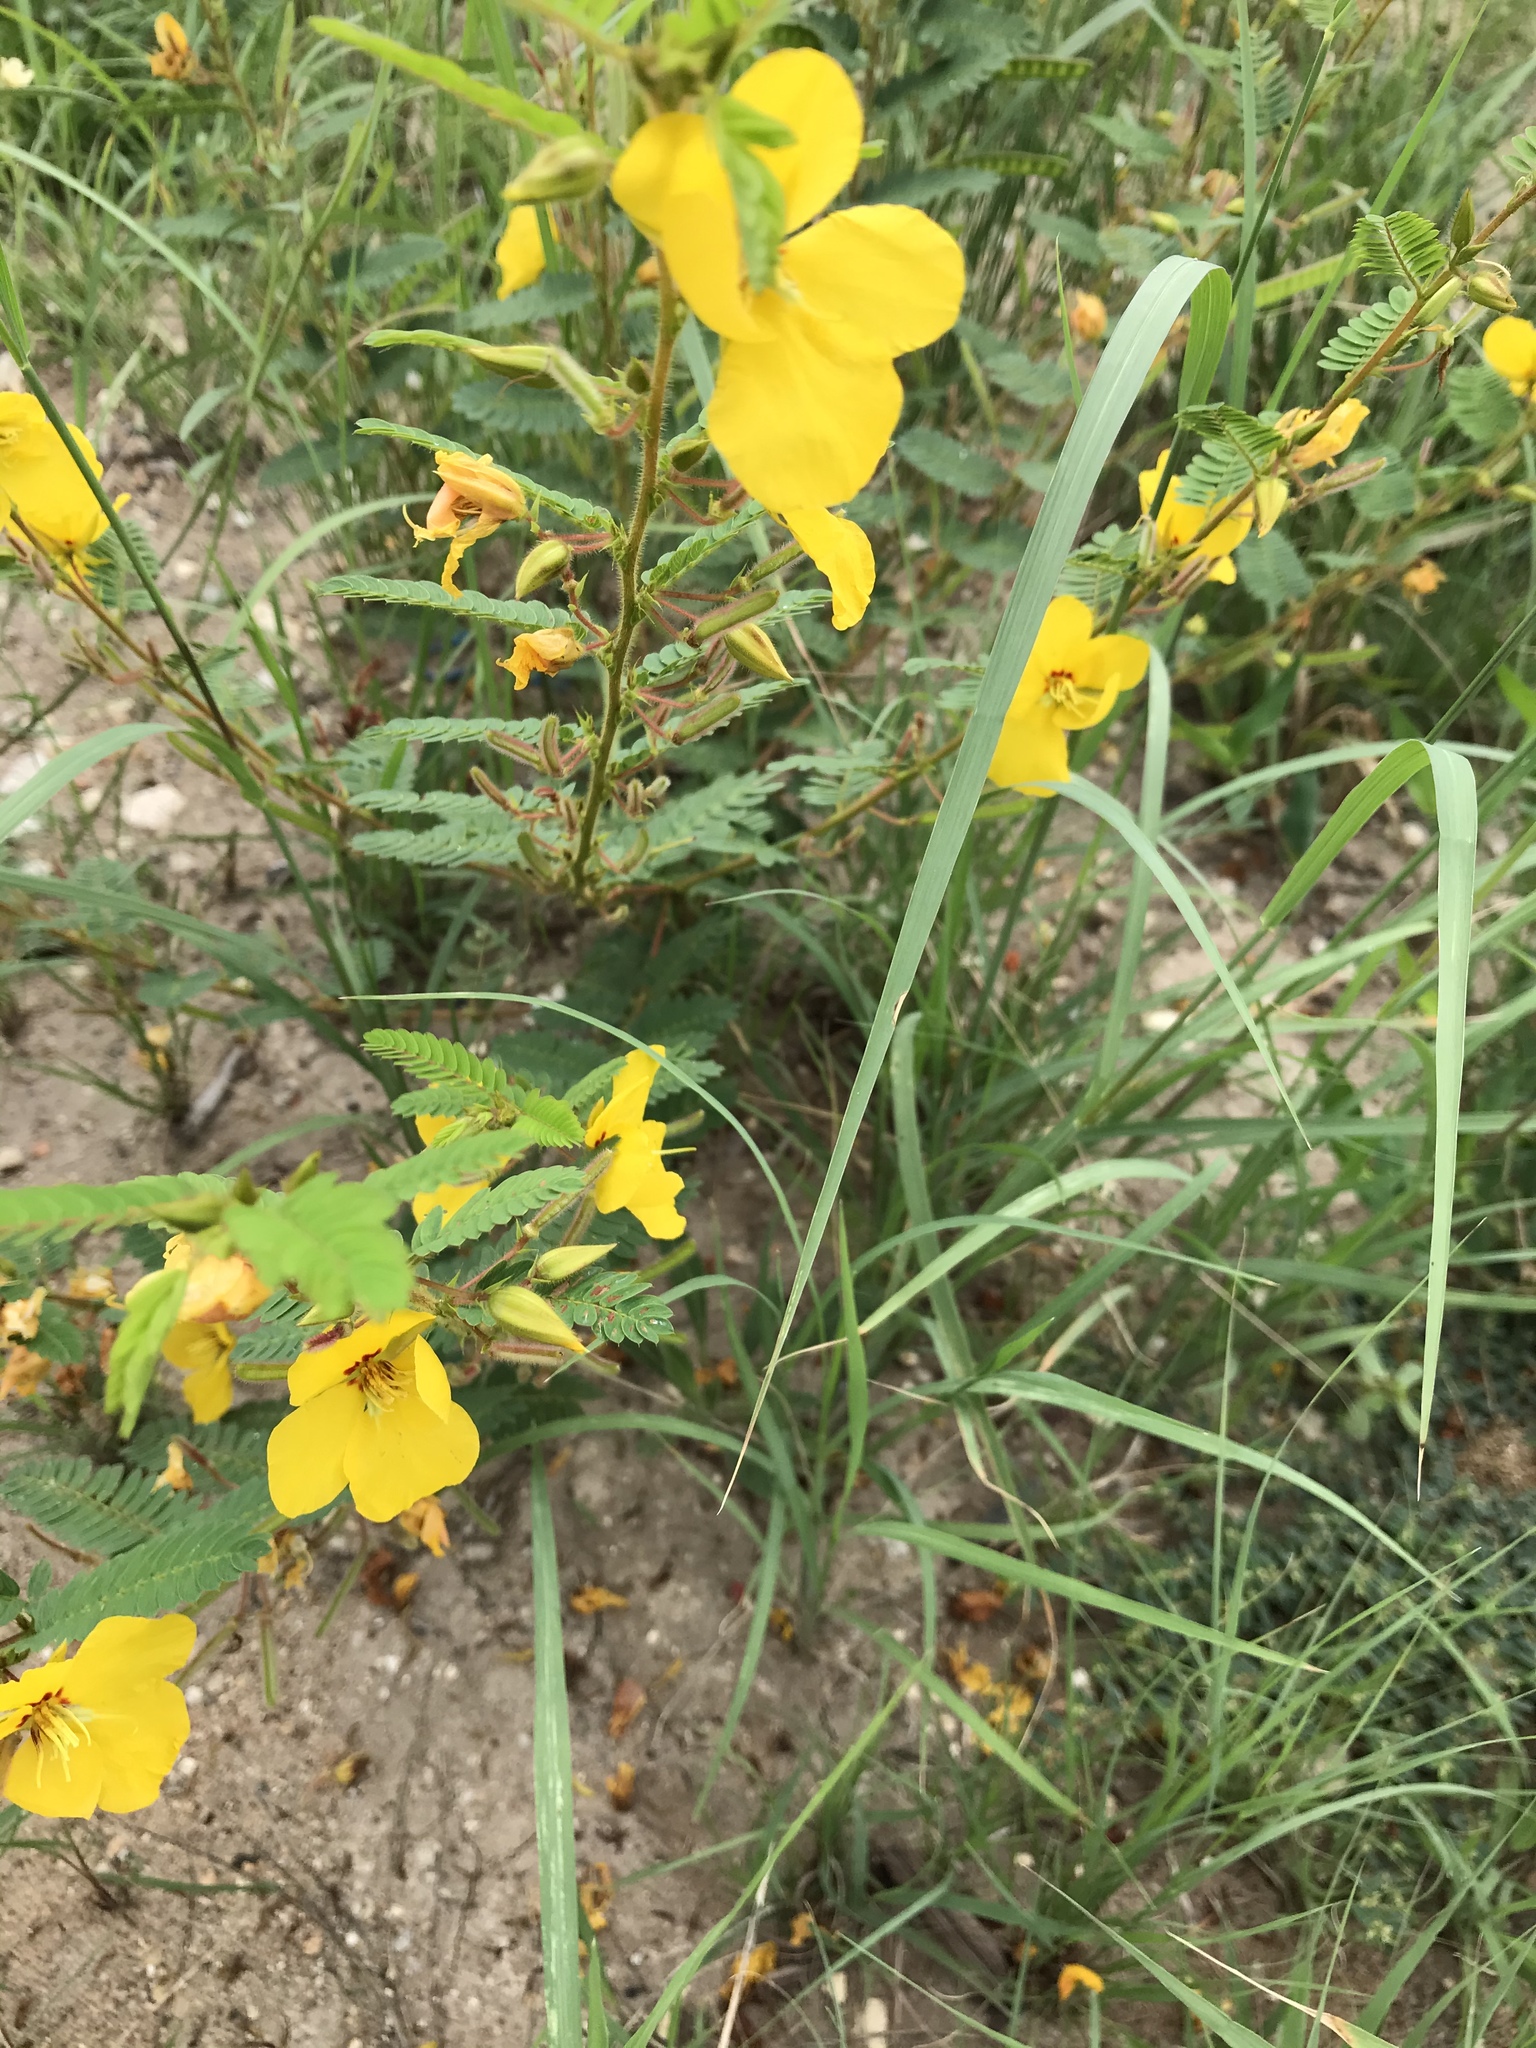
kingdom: Plantae
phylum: Tracheophyta
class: Magnoliopsida
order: Fabales
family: Fabaceae
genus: Chamaecrista
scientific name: Chamaecrista fasciculata
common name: Golden cassia
